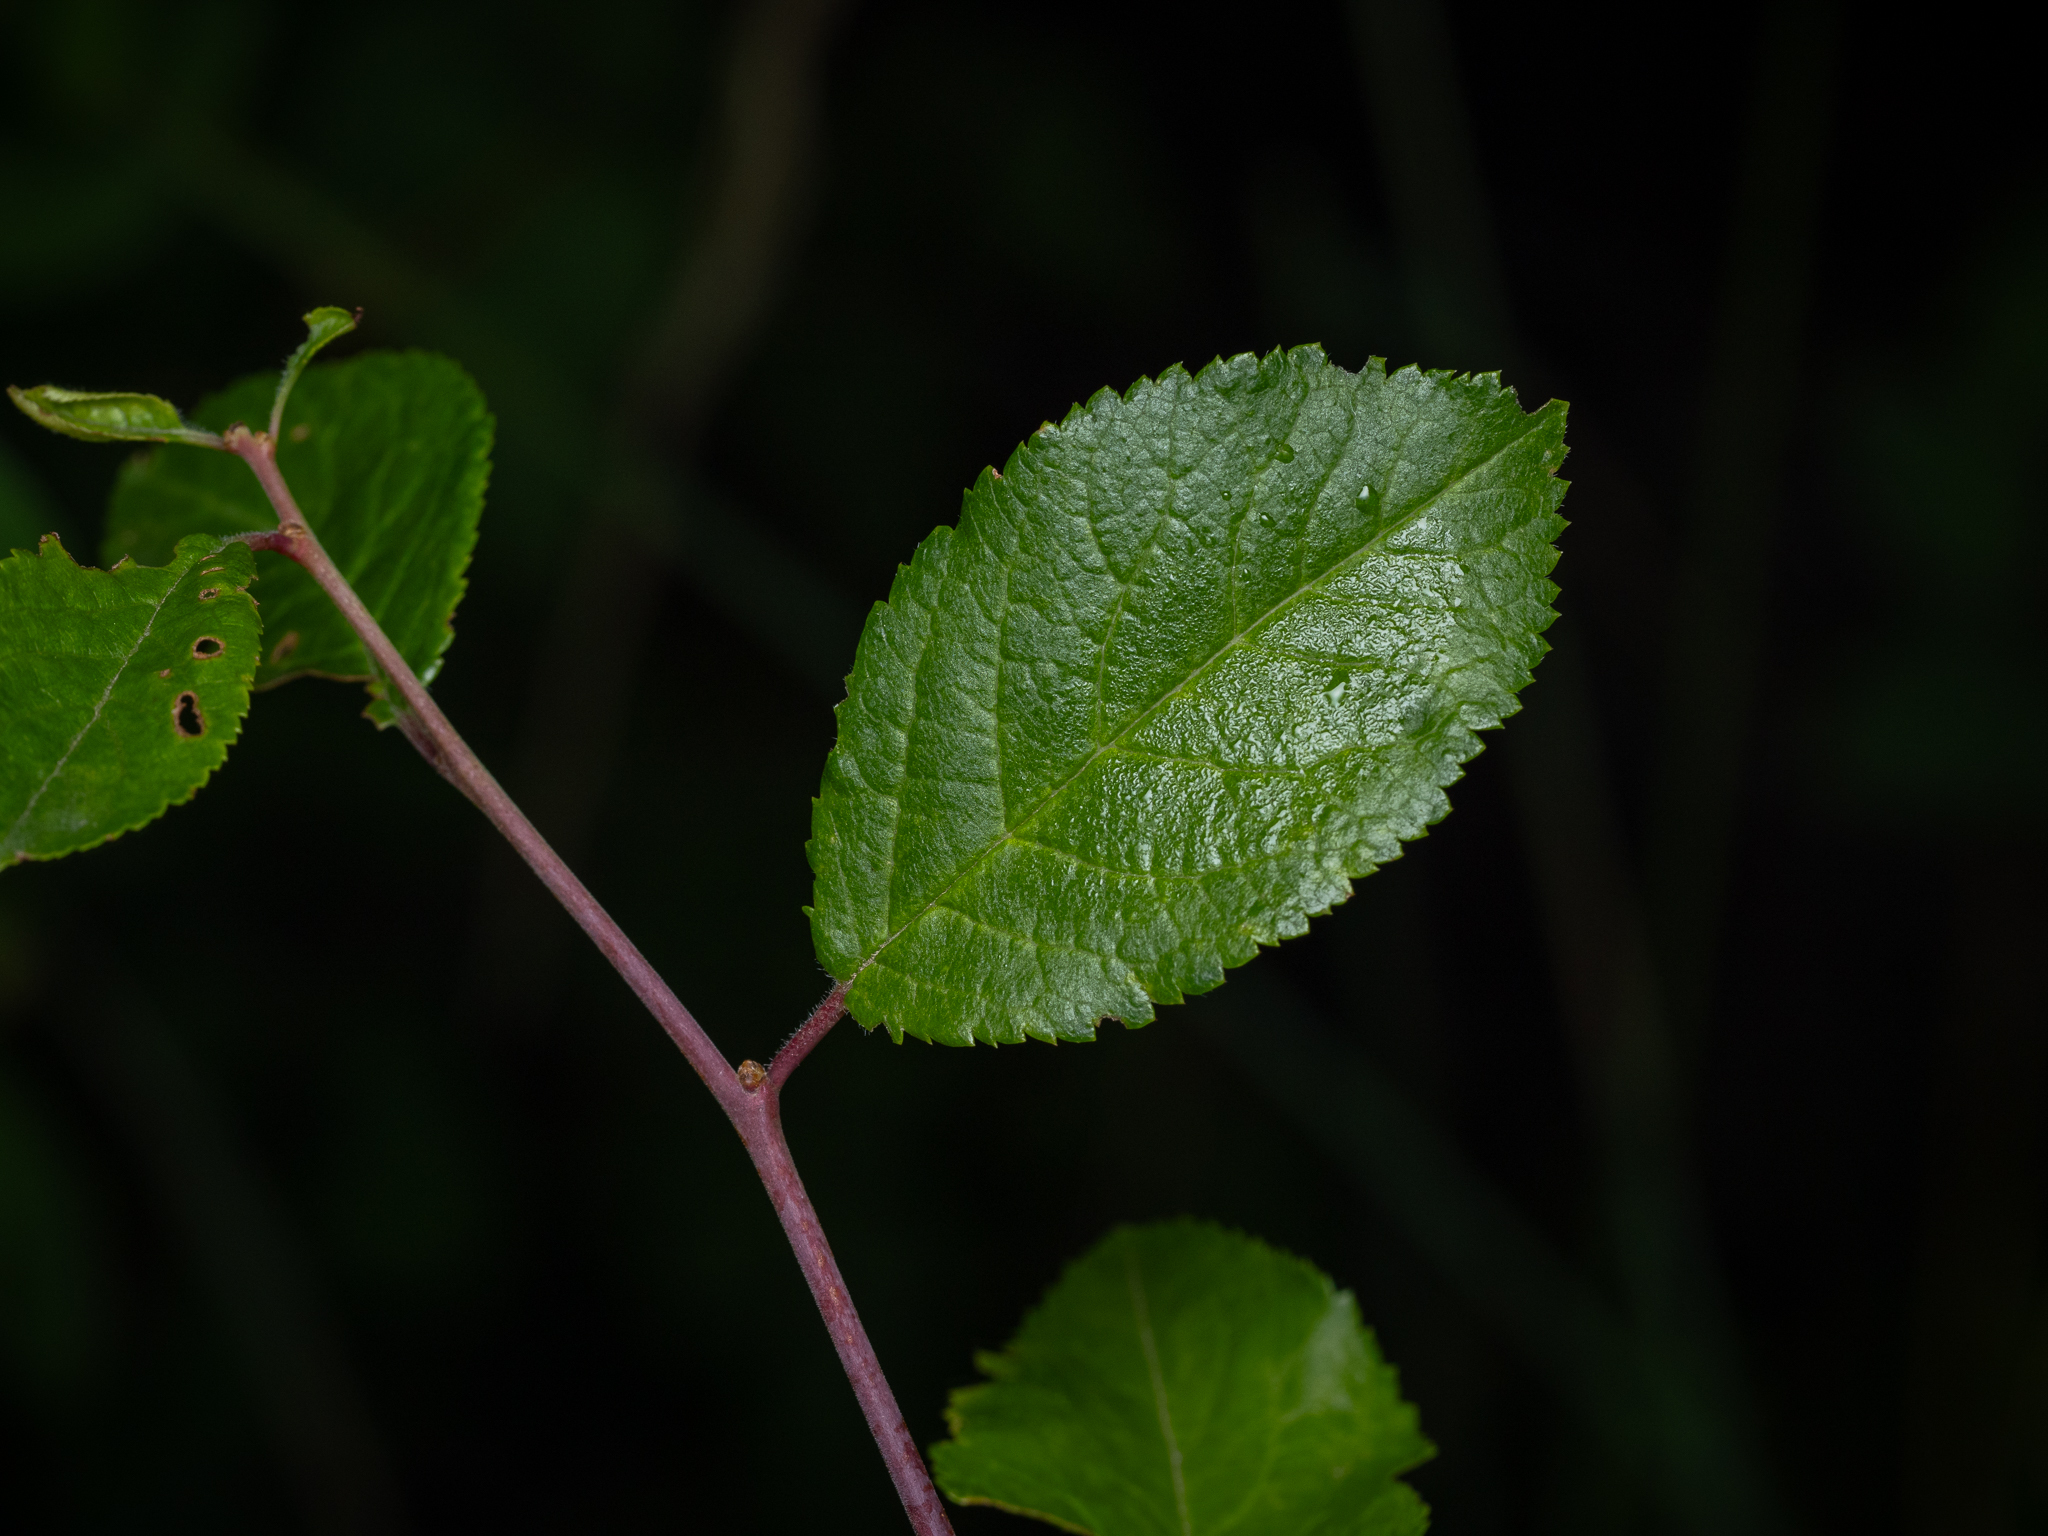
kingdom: Plantae
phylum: Tracheophyta
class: Magnoliopsida
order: Rosales
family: Rosaceae
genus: Prunus
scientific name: Prunus spinosa
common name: Blackthorn
